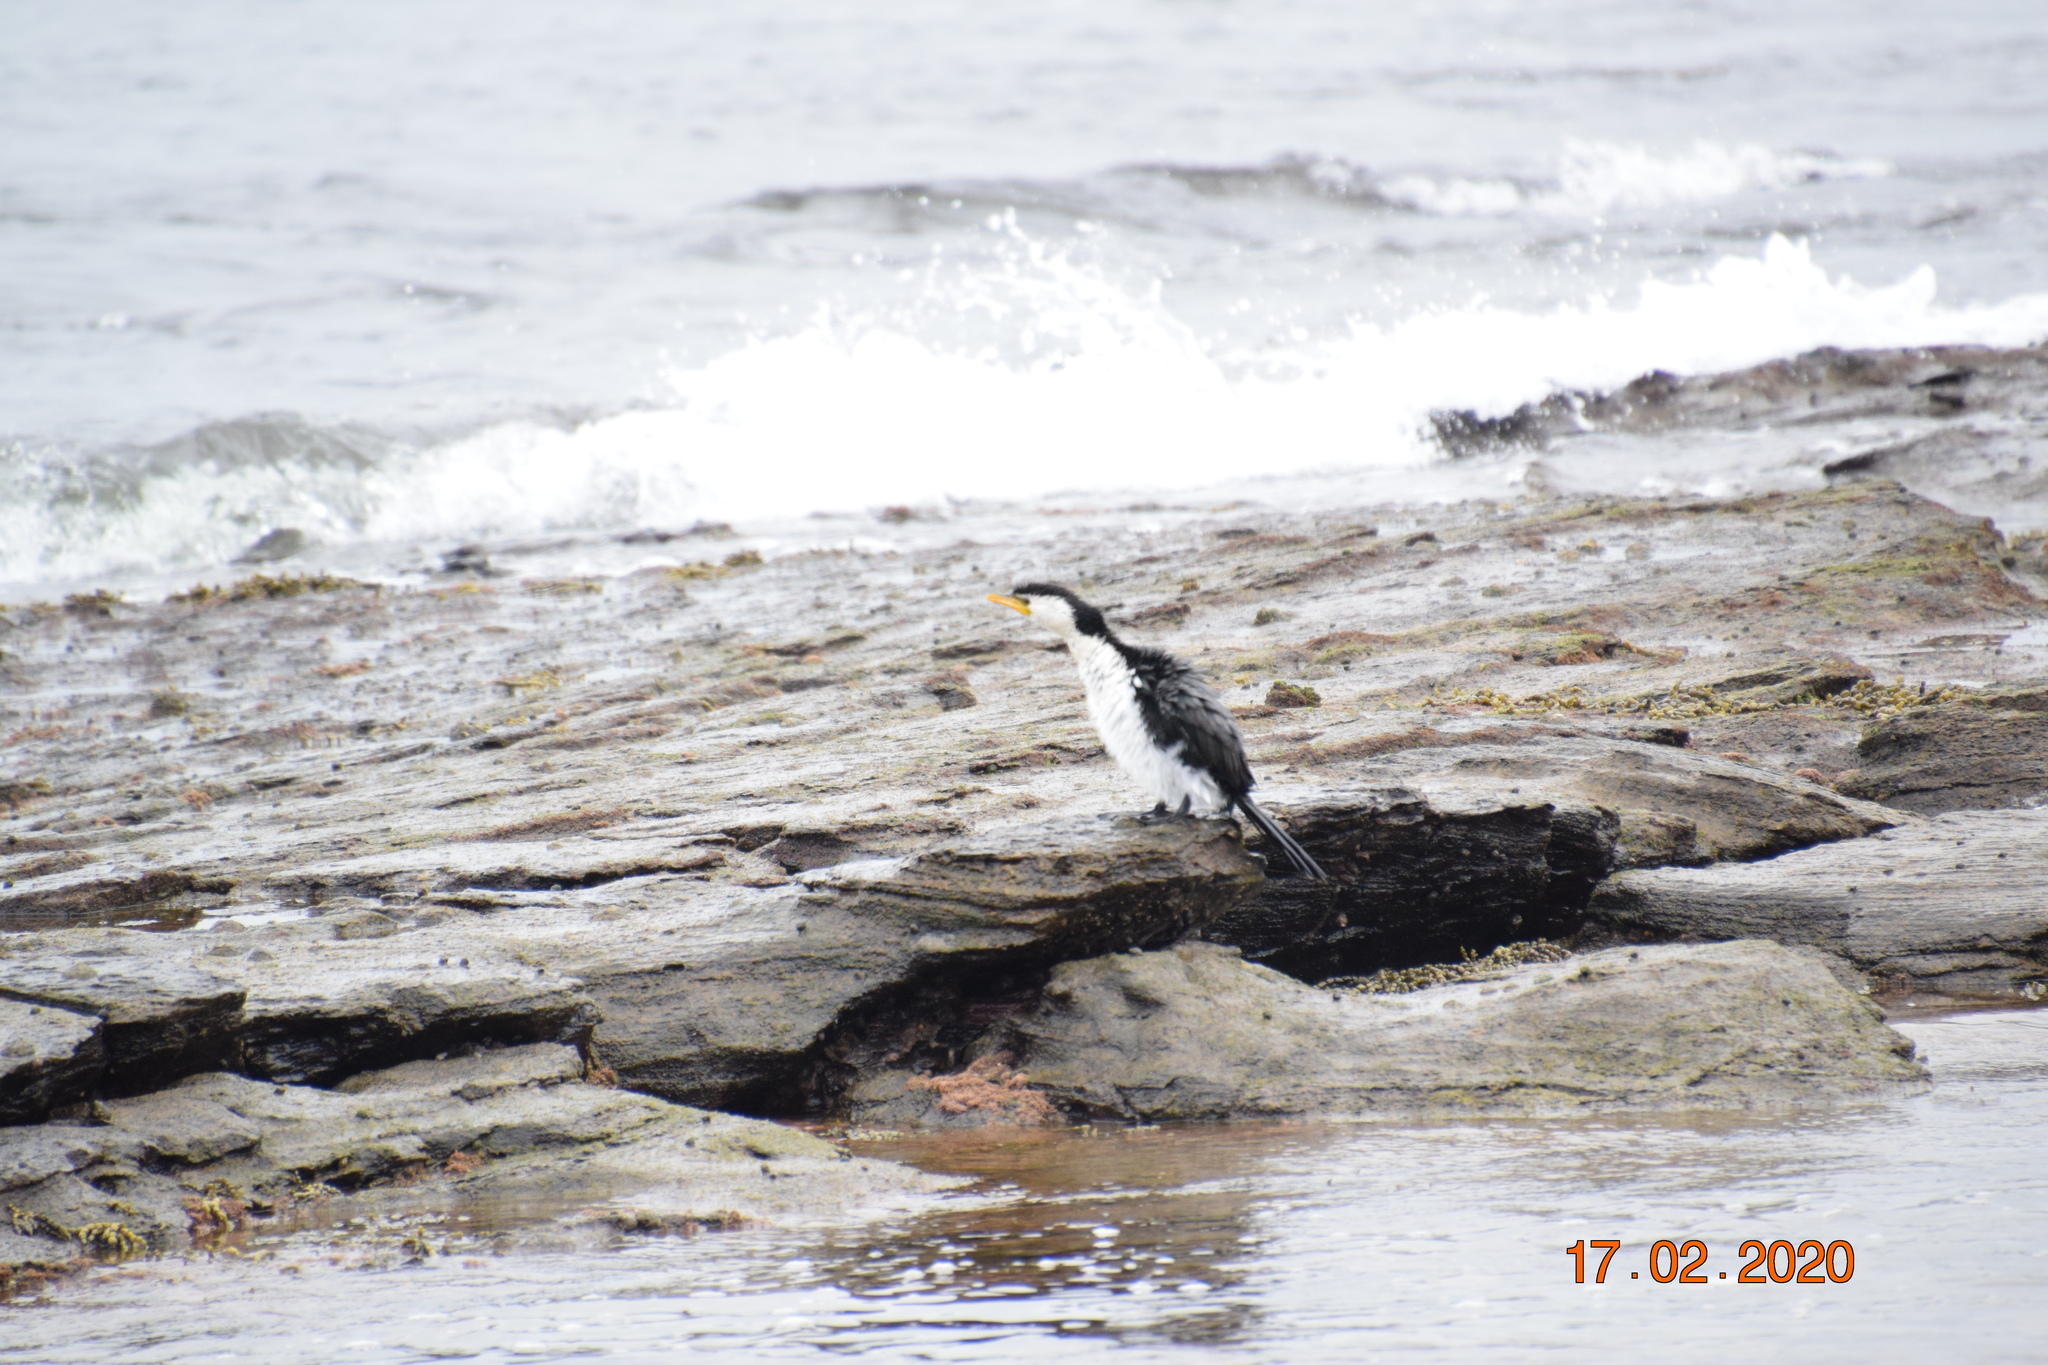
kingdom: Animalia
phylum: Chordata
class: Aves
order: Suliformes
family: Phalacrocoracidae
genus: Microcarbo
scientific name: Microcarbo melanoleucos
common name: Little pied cormorant
